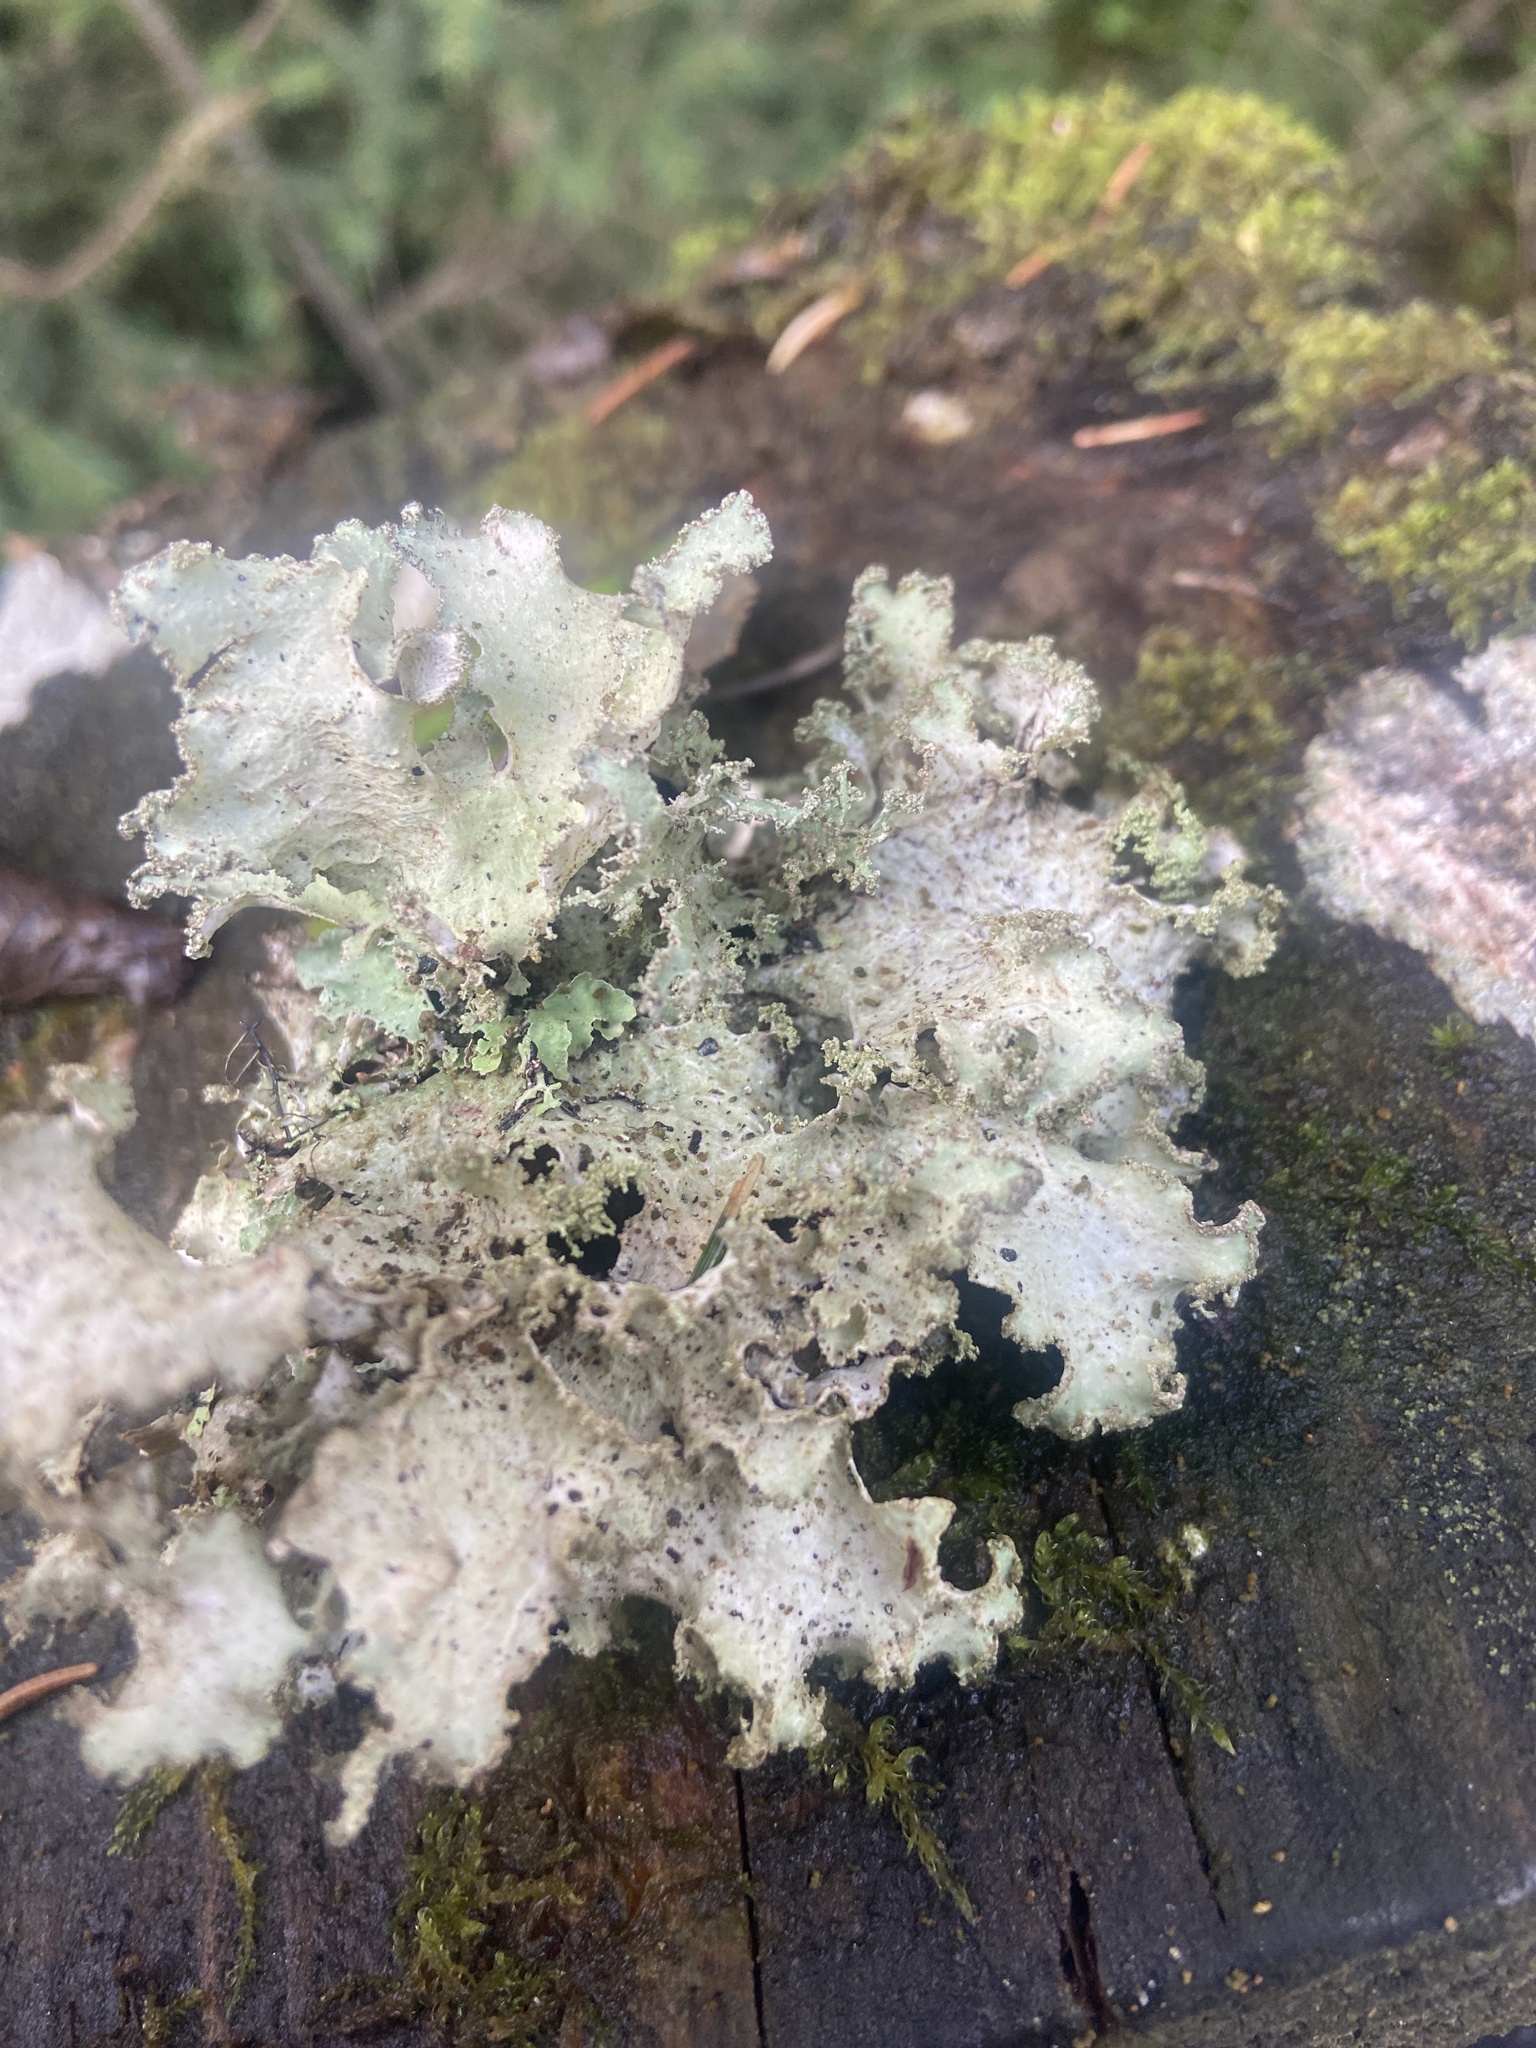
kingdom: Fungi
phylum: Ascomycota
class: Lecanoromycetes
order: Lecanorales
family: Parmeliaceae
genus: Platismatia
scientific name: Platismatia glauca
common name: Varied rag lichen
